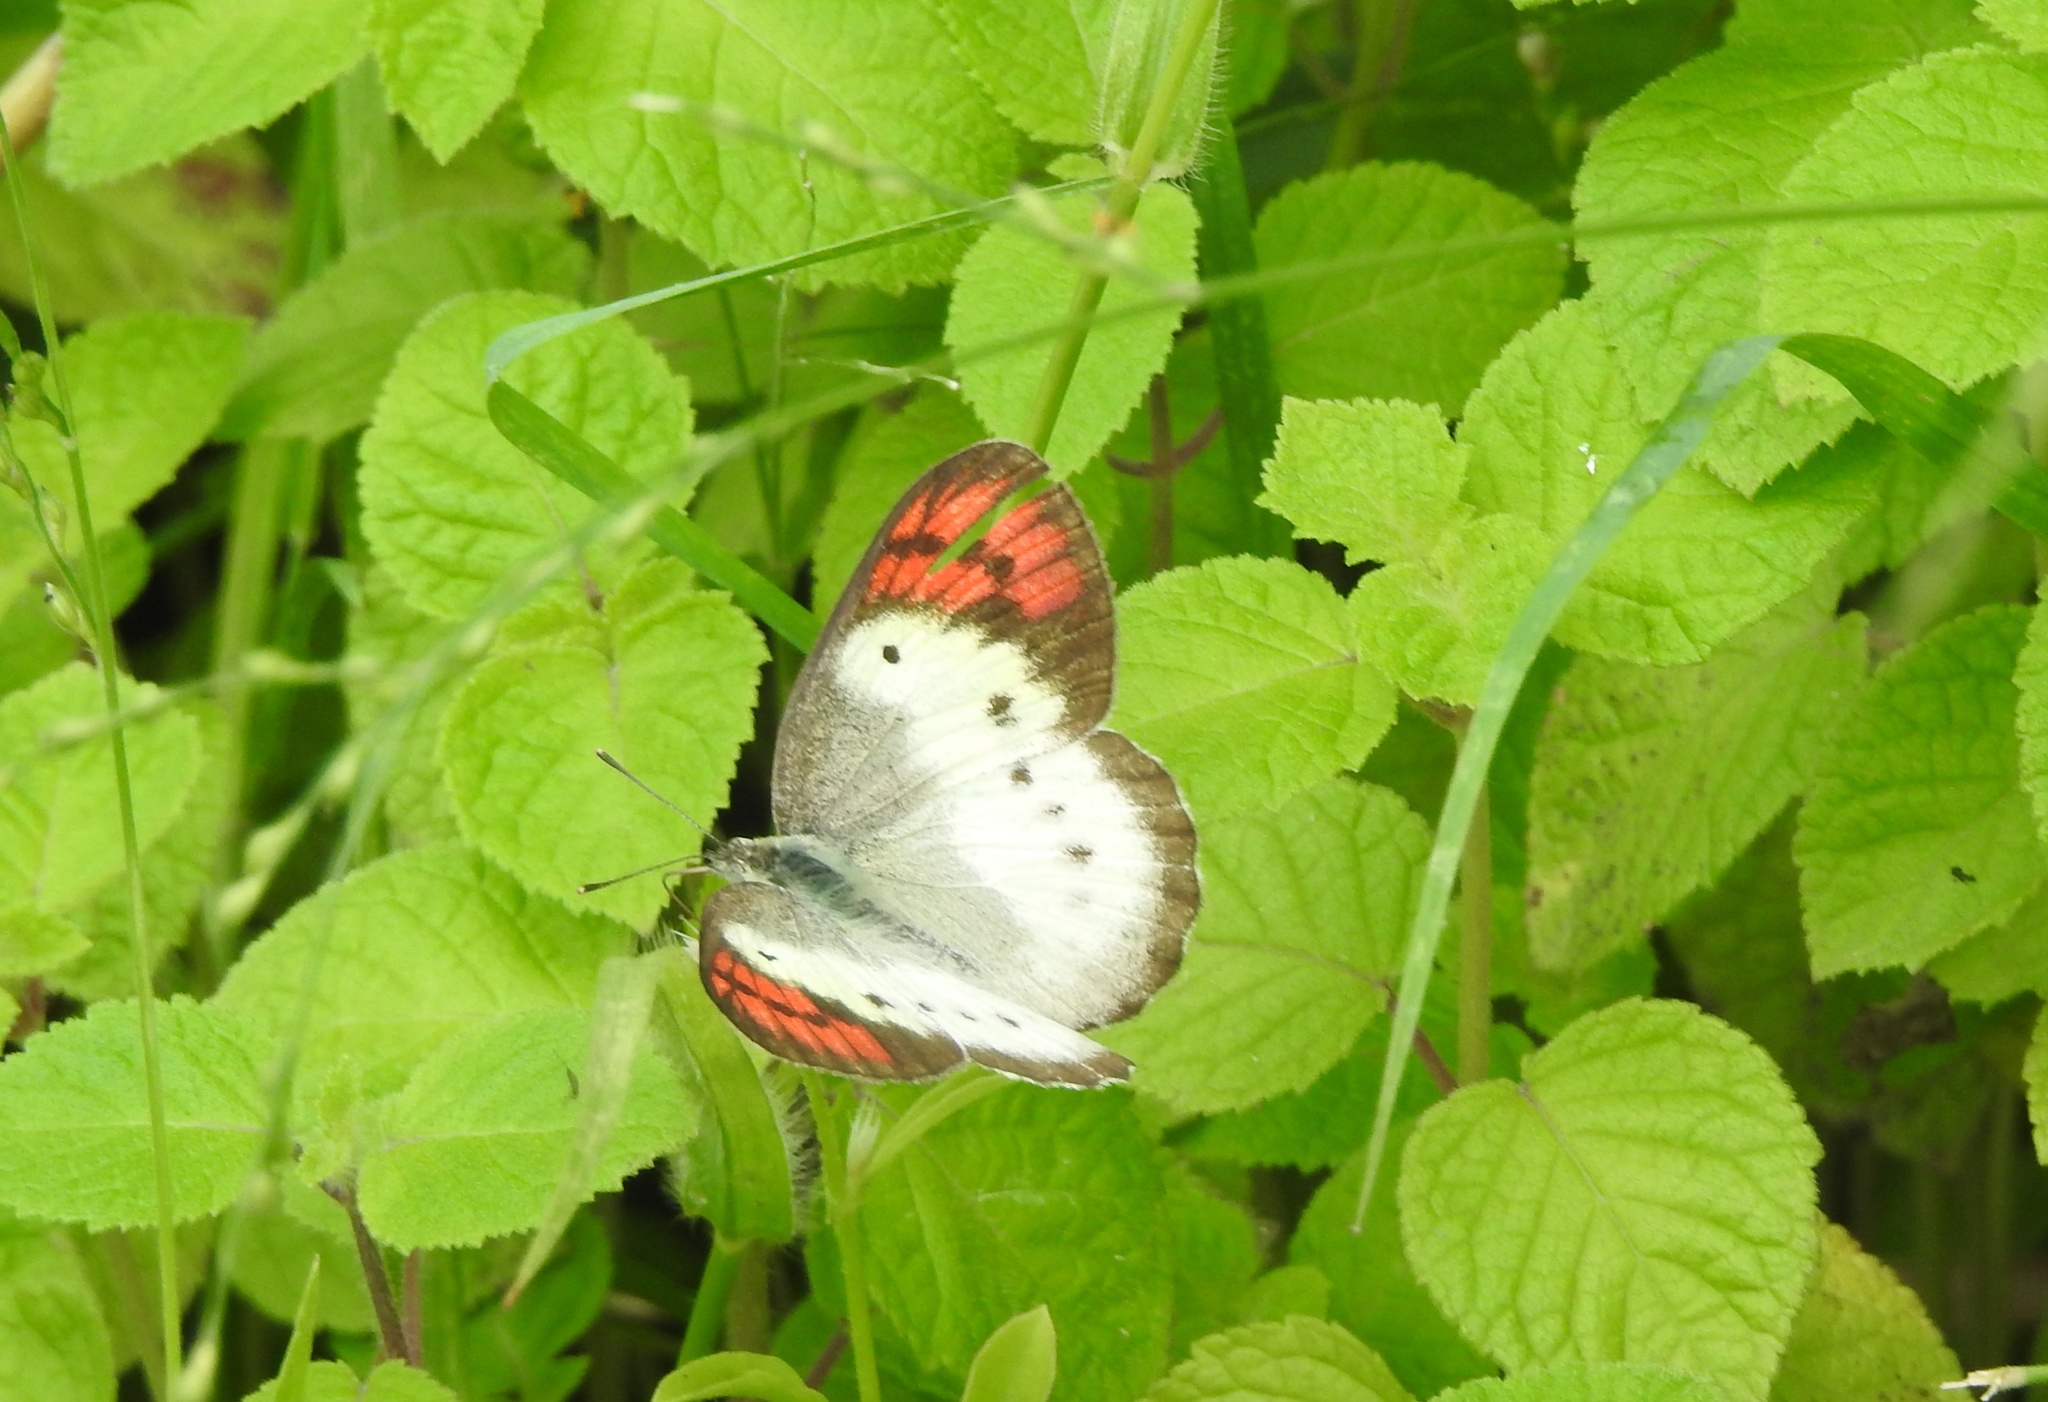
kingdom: Animalia
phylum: Arthropoda
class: Insecta
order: Lepidoptera
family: Pieridae
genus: Colotis
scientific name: Colotis danae
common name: Crimson tip
